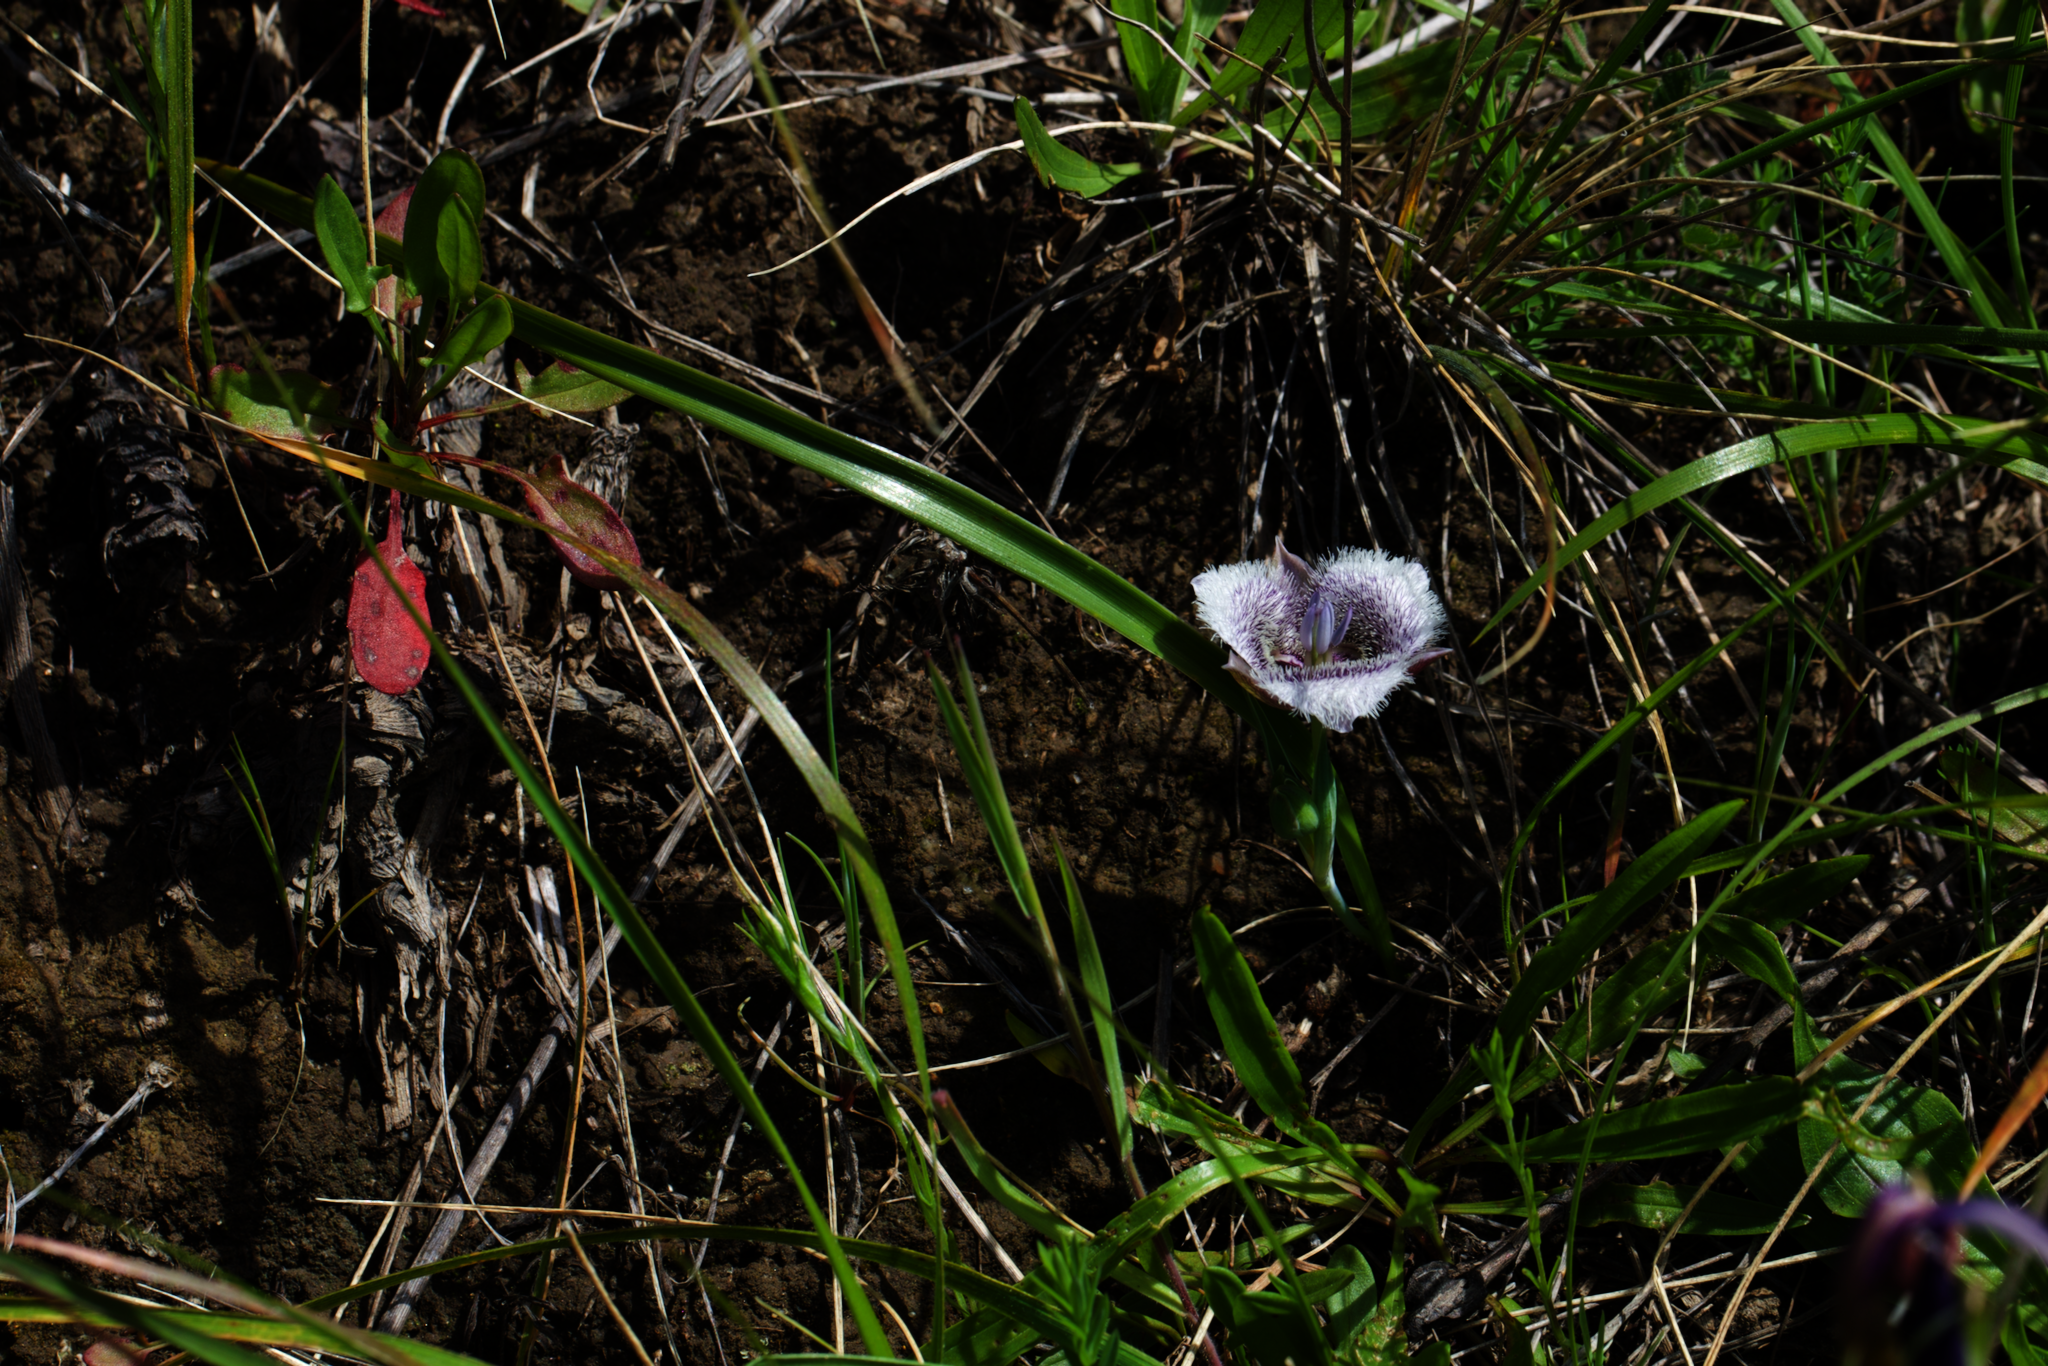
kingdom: Plantae
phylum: Tracheophyta
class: Liliopsida
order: Liliales
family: Liliaceae
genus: Calochortus
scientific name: Calochortus tolmiei
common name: Pussy-ears
